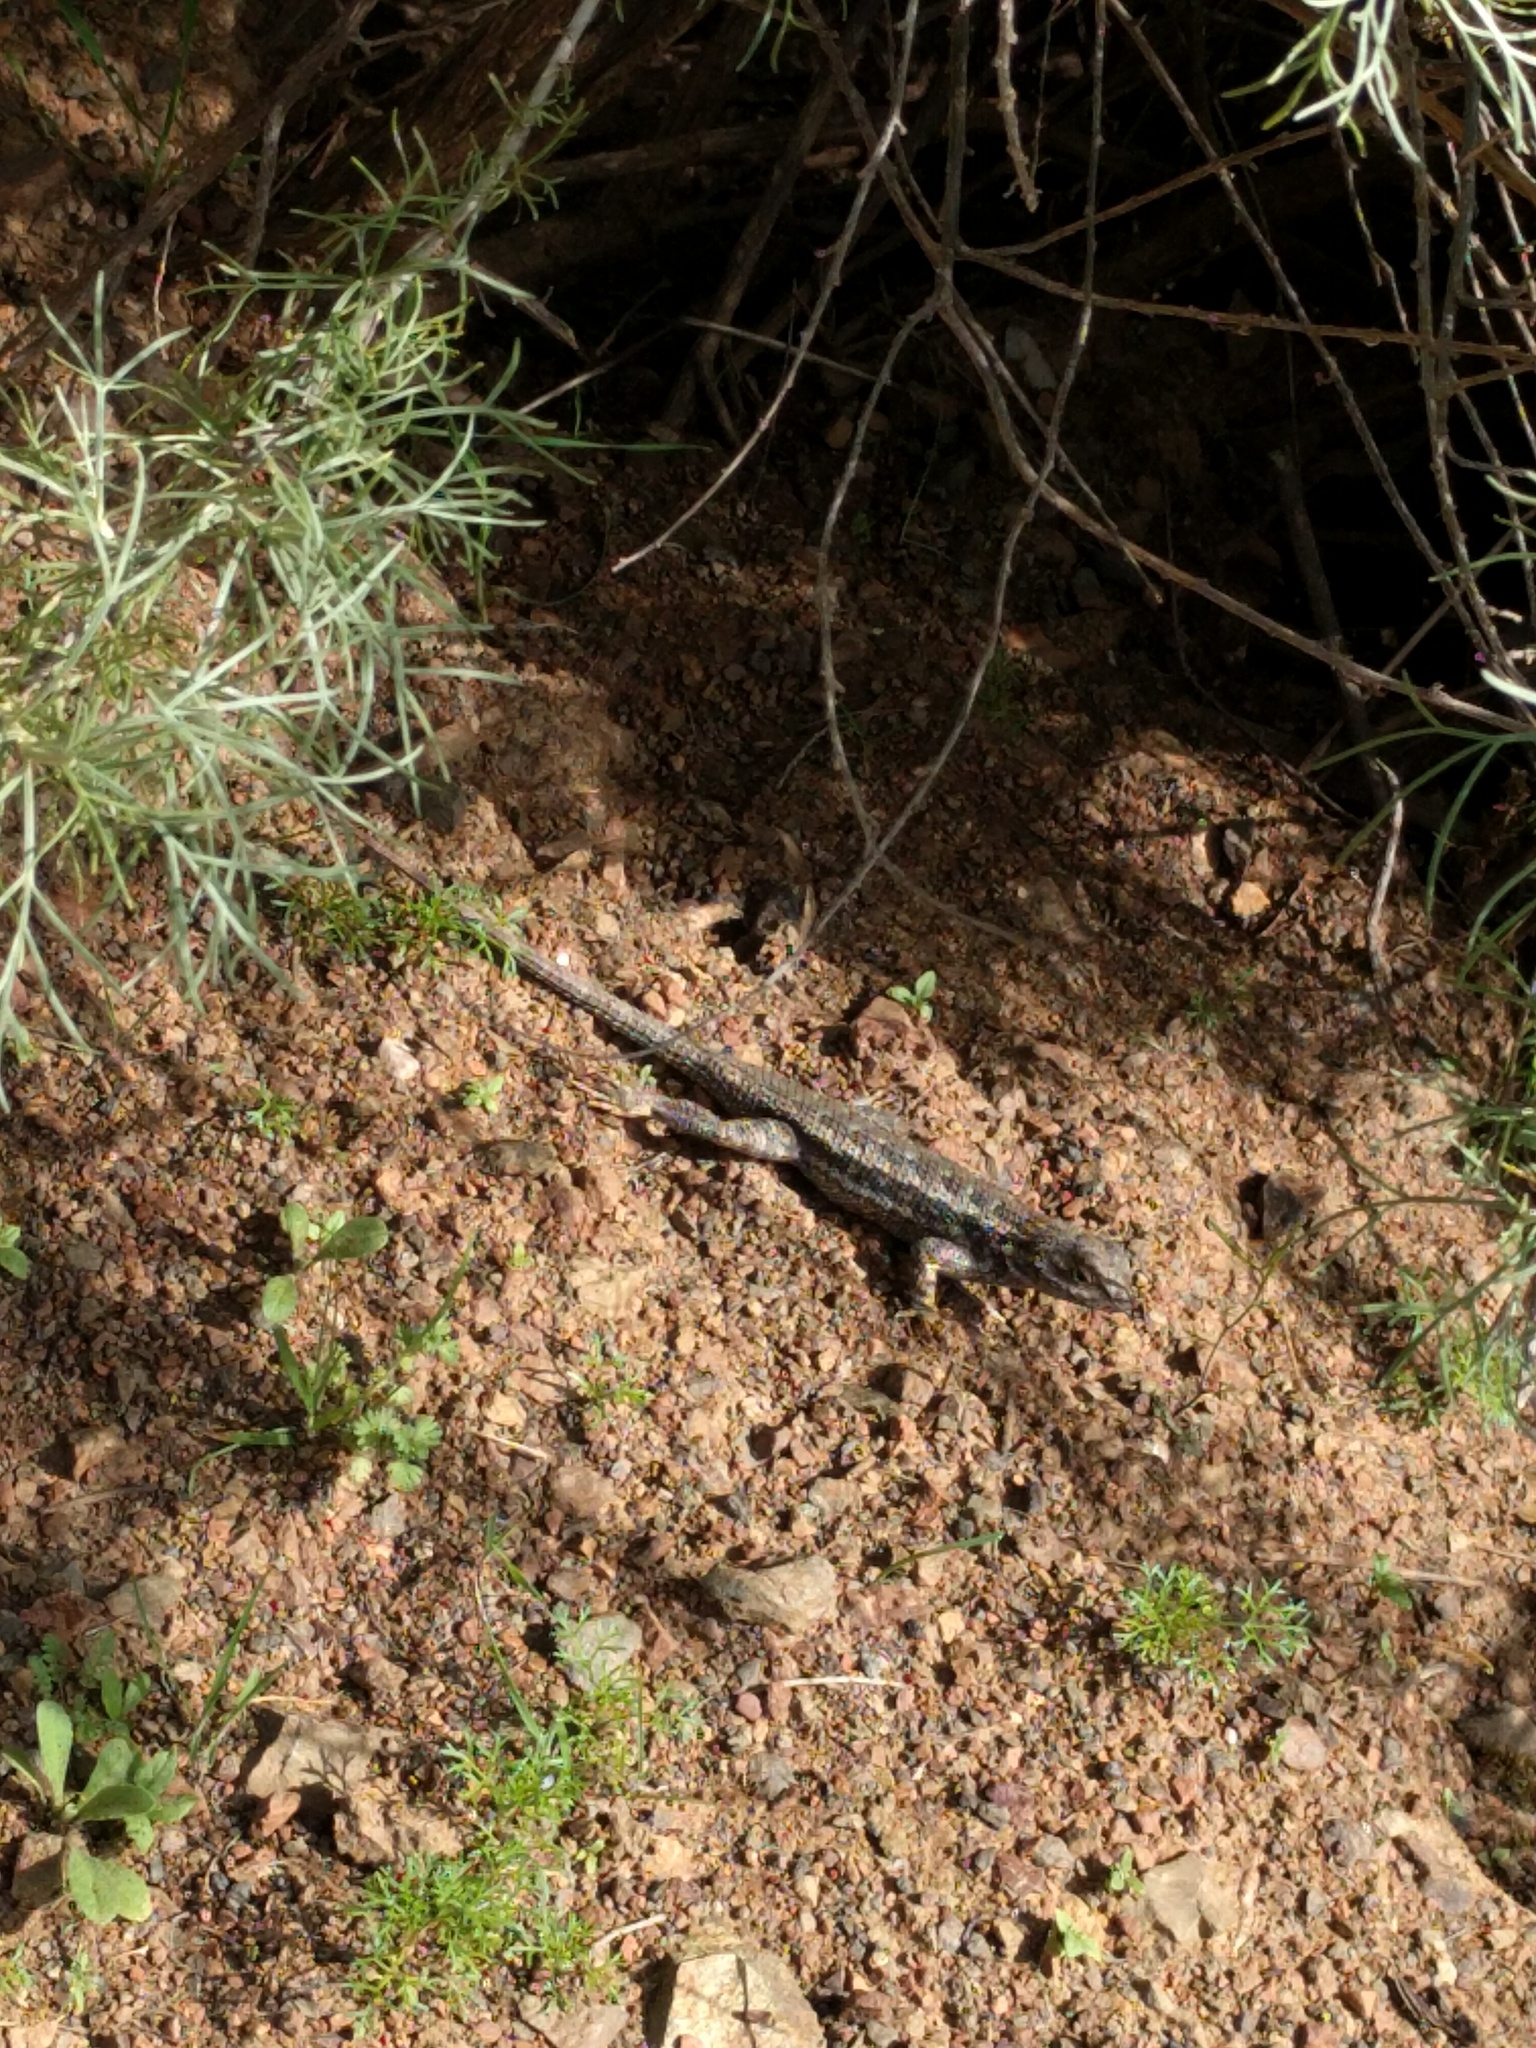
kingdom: Animalia
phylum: Chordata
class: Squamata
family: Phrynosomatidae
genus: Sceloporus
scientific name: Sceloporus occidentalis
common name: Western fence lizard
